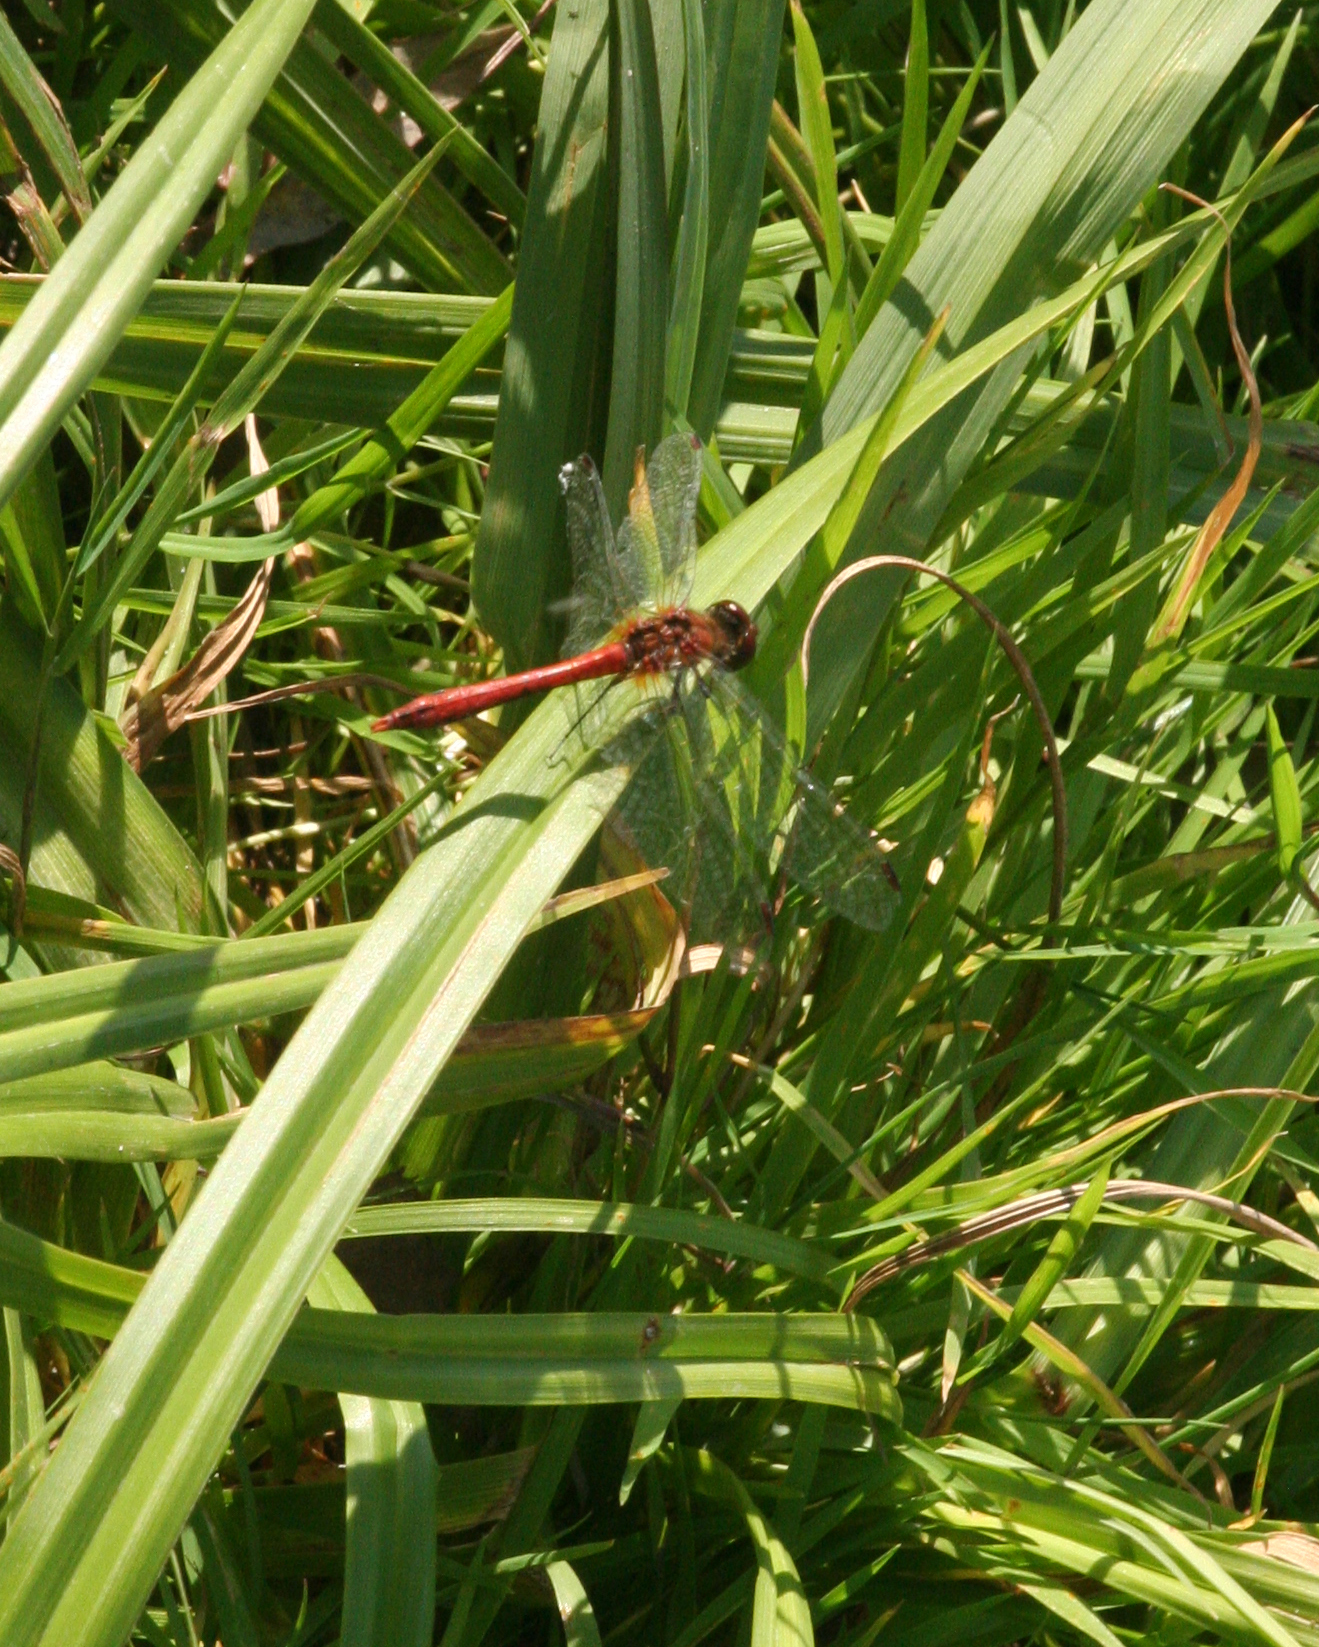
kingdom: Animalia
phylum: Arthropoda
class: Insecta
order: Odonata
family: Libellulidae
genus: Sympetrum
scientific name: Sympetrum sanguineum
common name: Ruddy darter
